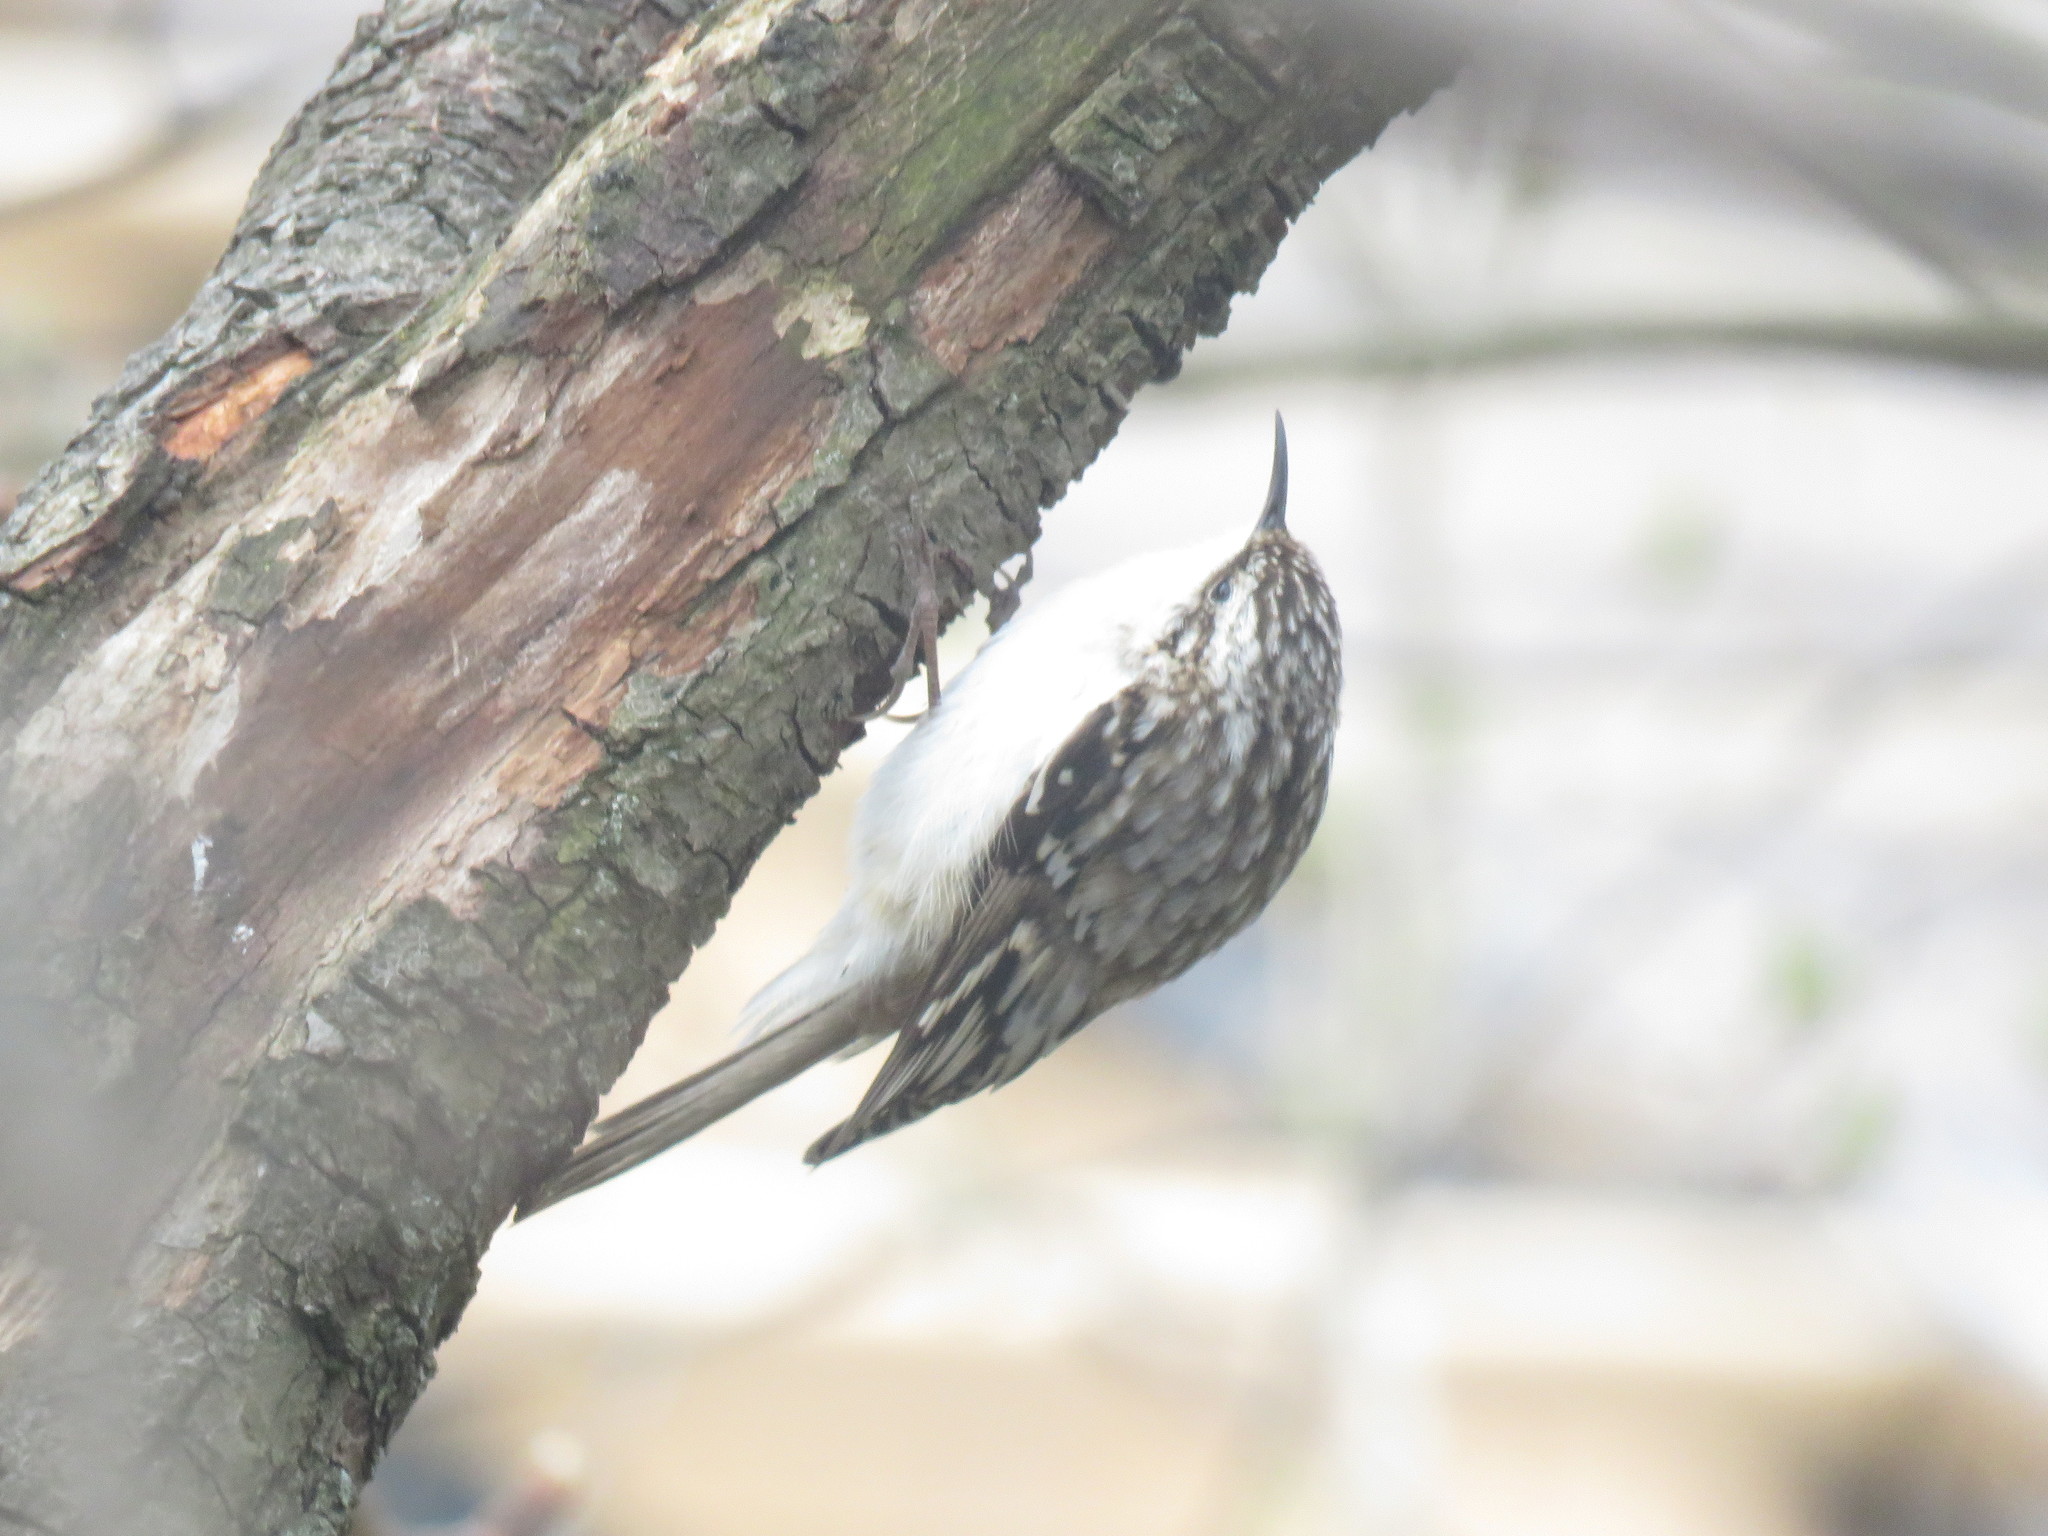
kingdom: Animalia
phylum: Chordata
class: Aves
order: Passeriformes
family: Certhiidae
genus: Certhia
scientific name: Certhia americana
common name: Brown creeper
